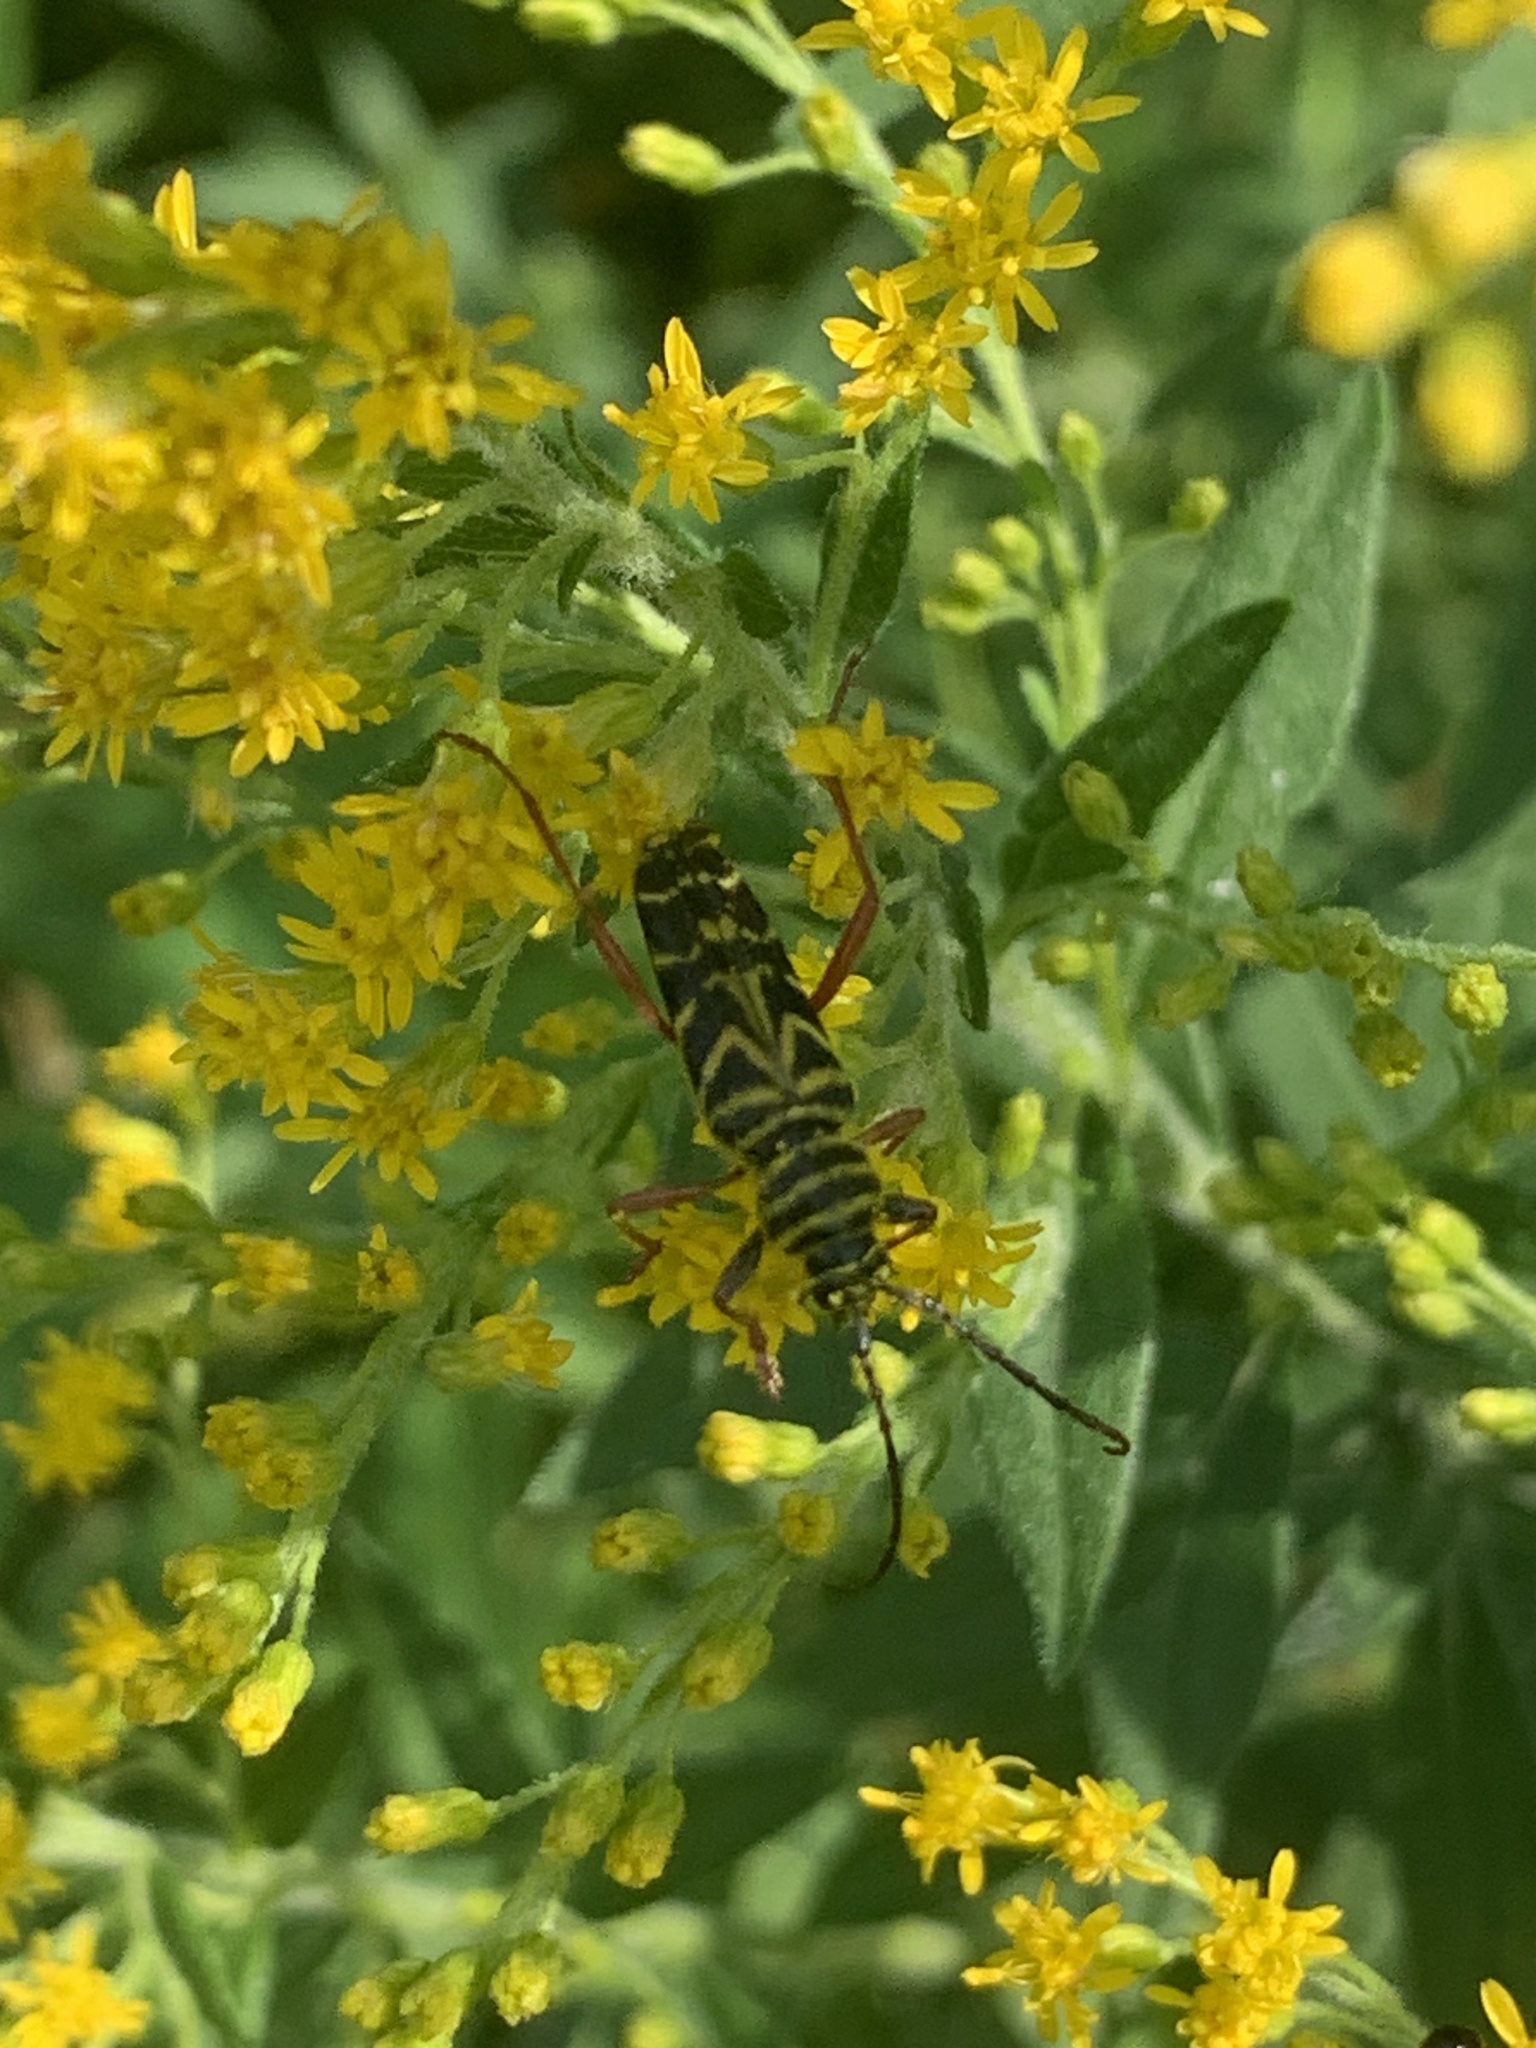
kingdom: Animalia
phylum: Arthropoda
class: Insecta
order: Coleoptera
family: Cerambycidae
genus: Megacyllene
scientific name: Megacyllene robiniae
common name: Locust borer
